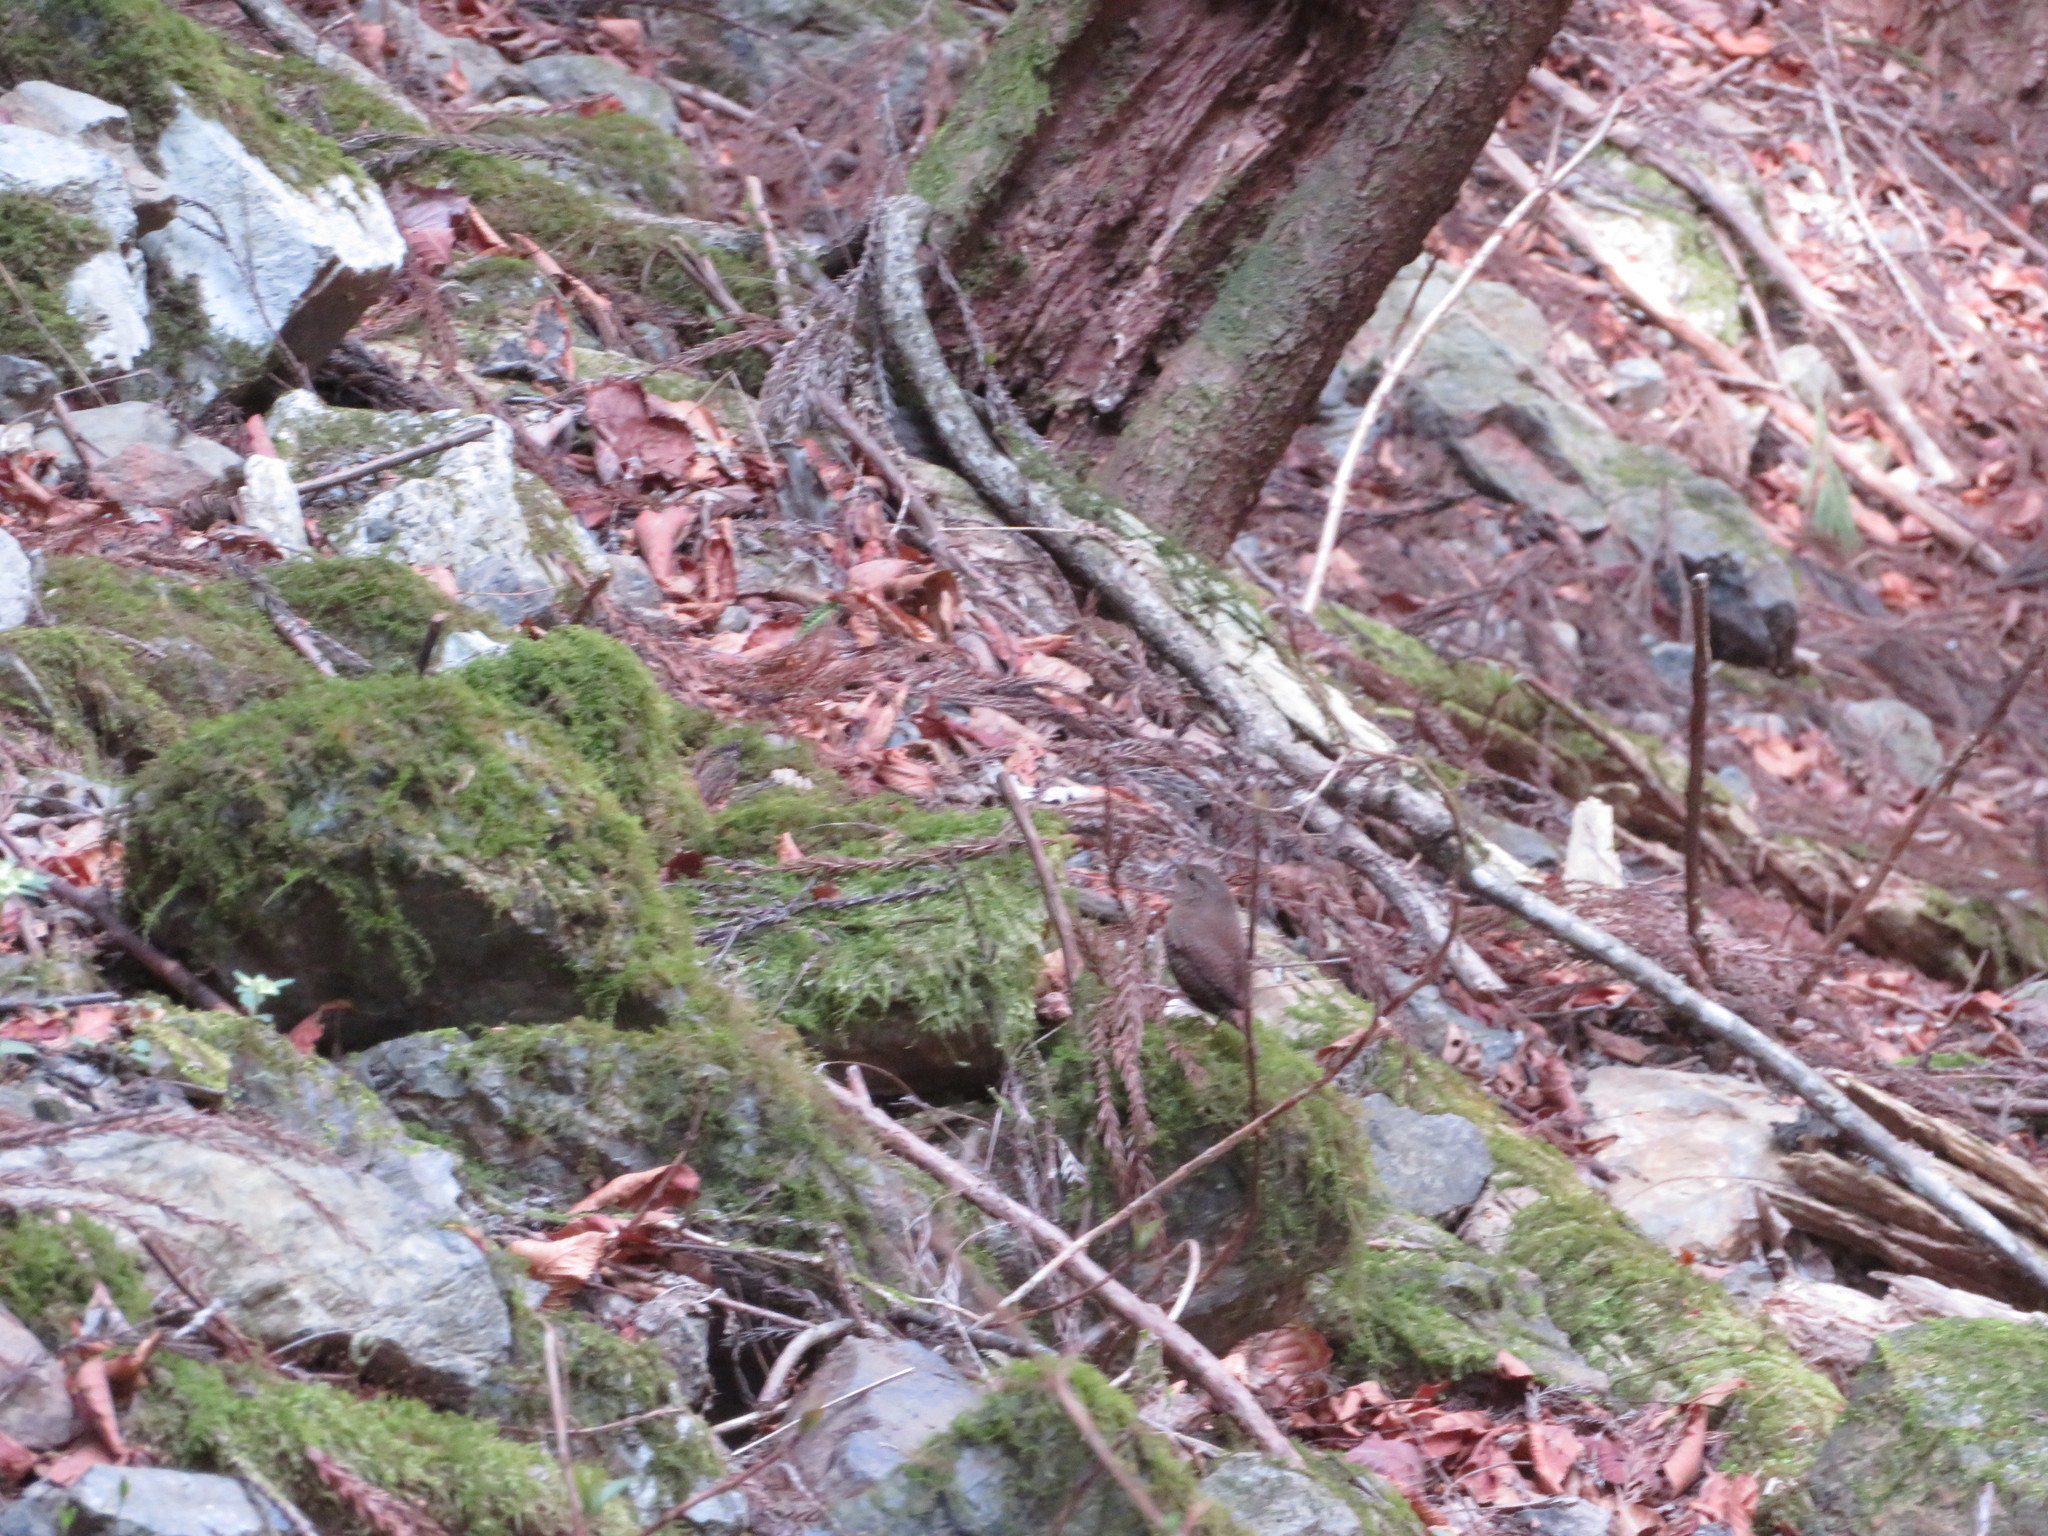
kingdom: Animalia
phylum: Chordata
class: Aves
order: Passeriformes
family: Troglodytidae
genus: Troglodytes
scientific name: Troglodytes troglodytes
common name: Eurasian wren
